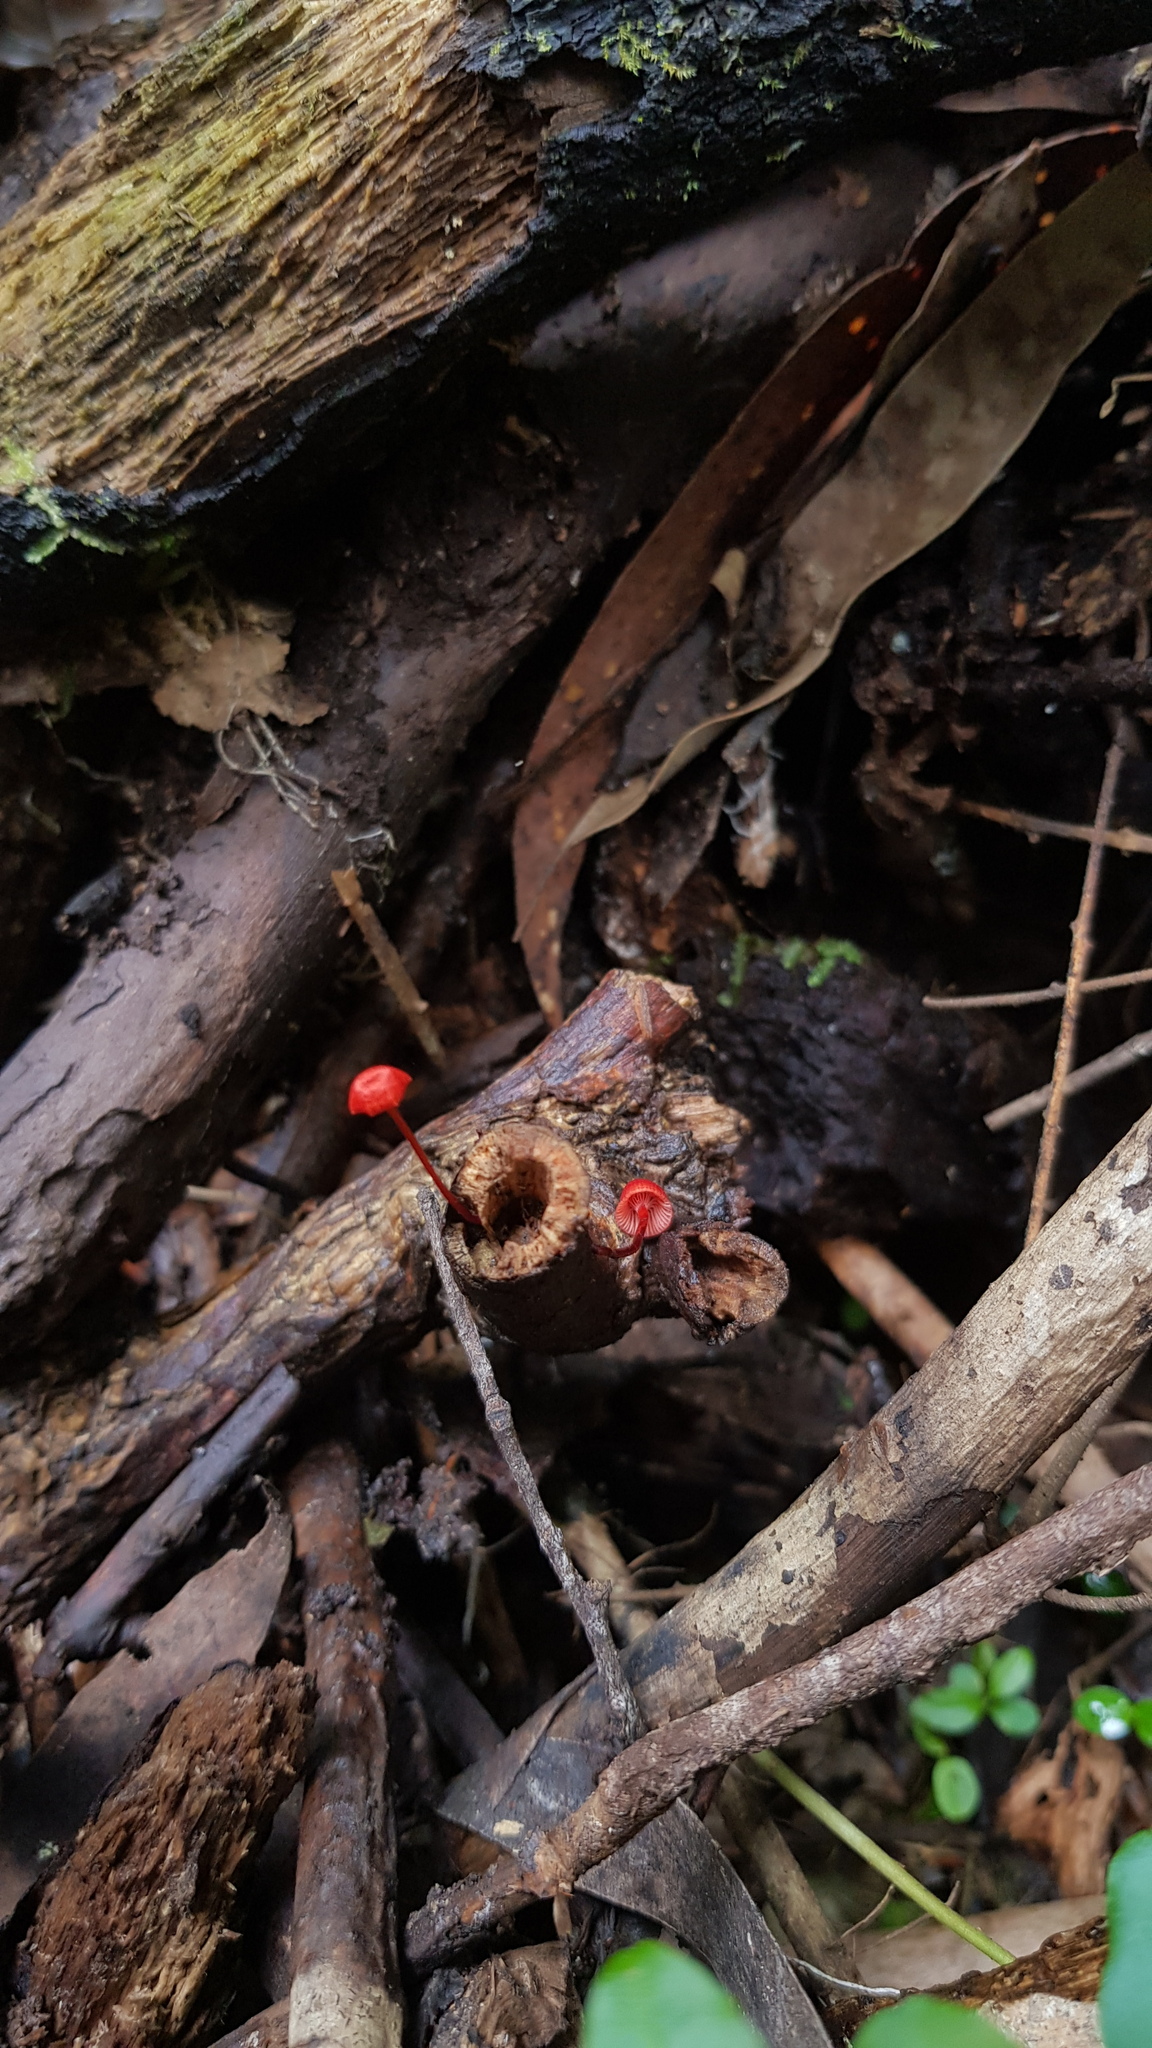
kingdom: Fungi
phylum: Basidiomycota
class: Agaricomycetes
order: Agaricales
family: Mycenaceae
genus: Cruentomycena
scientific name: Cruentomycena viscidocruenta
